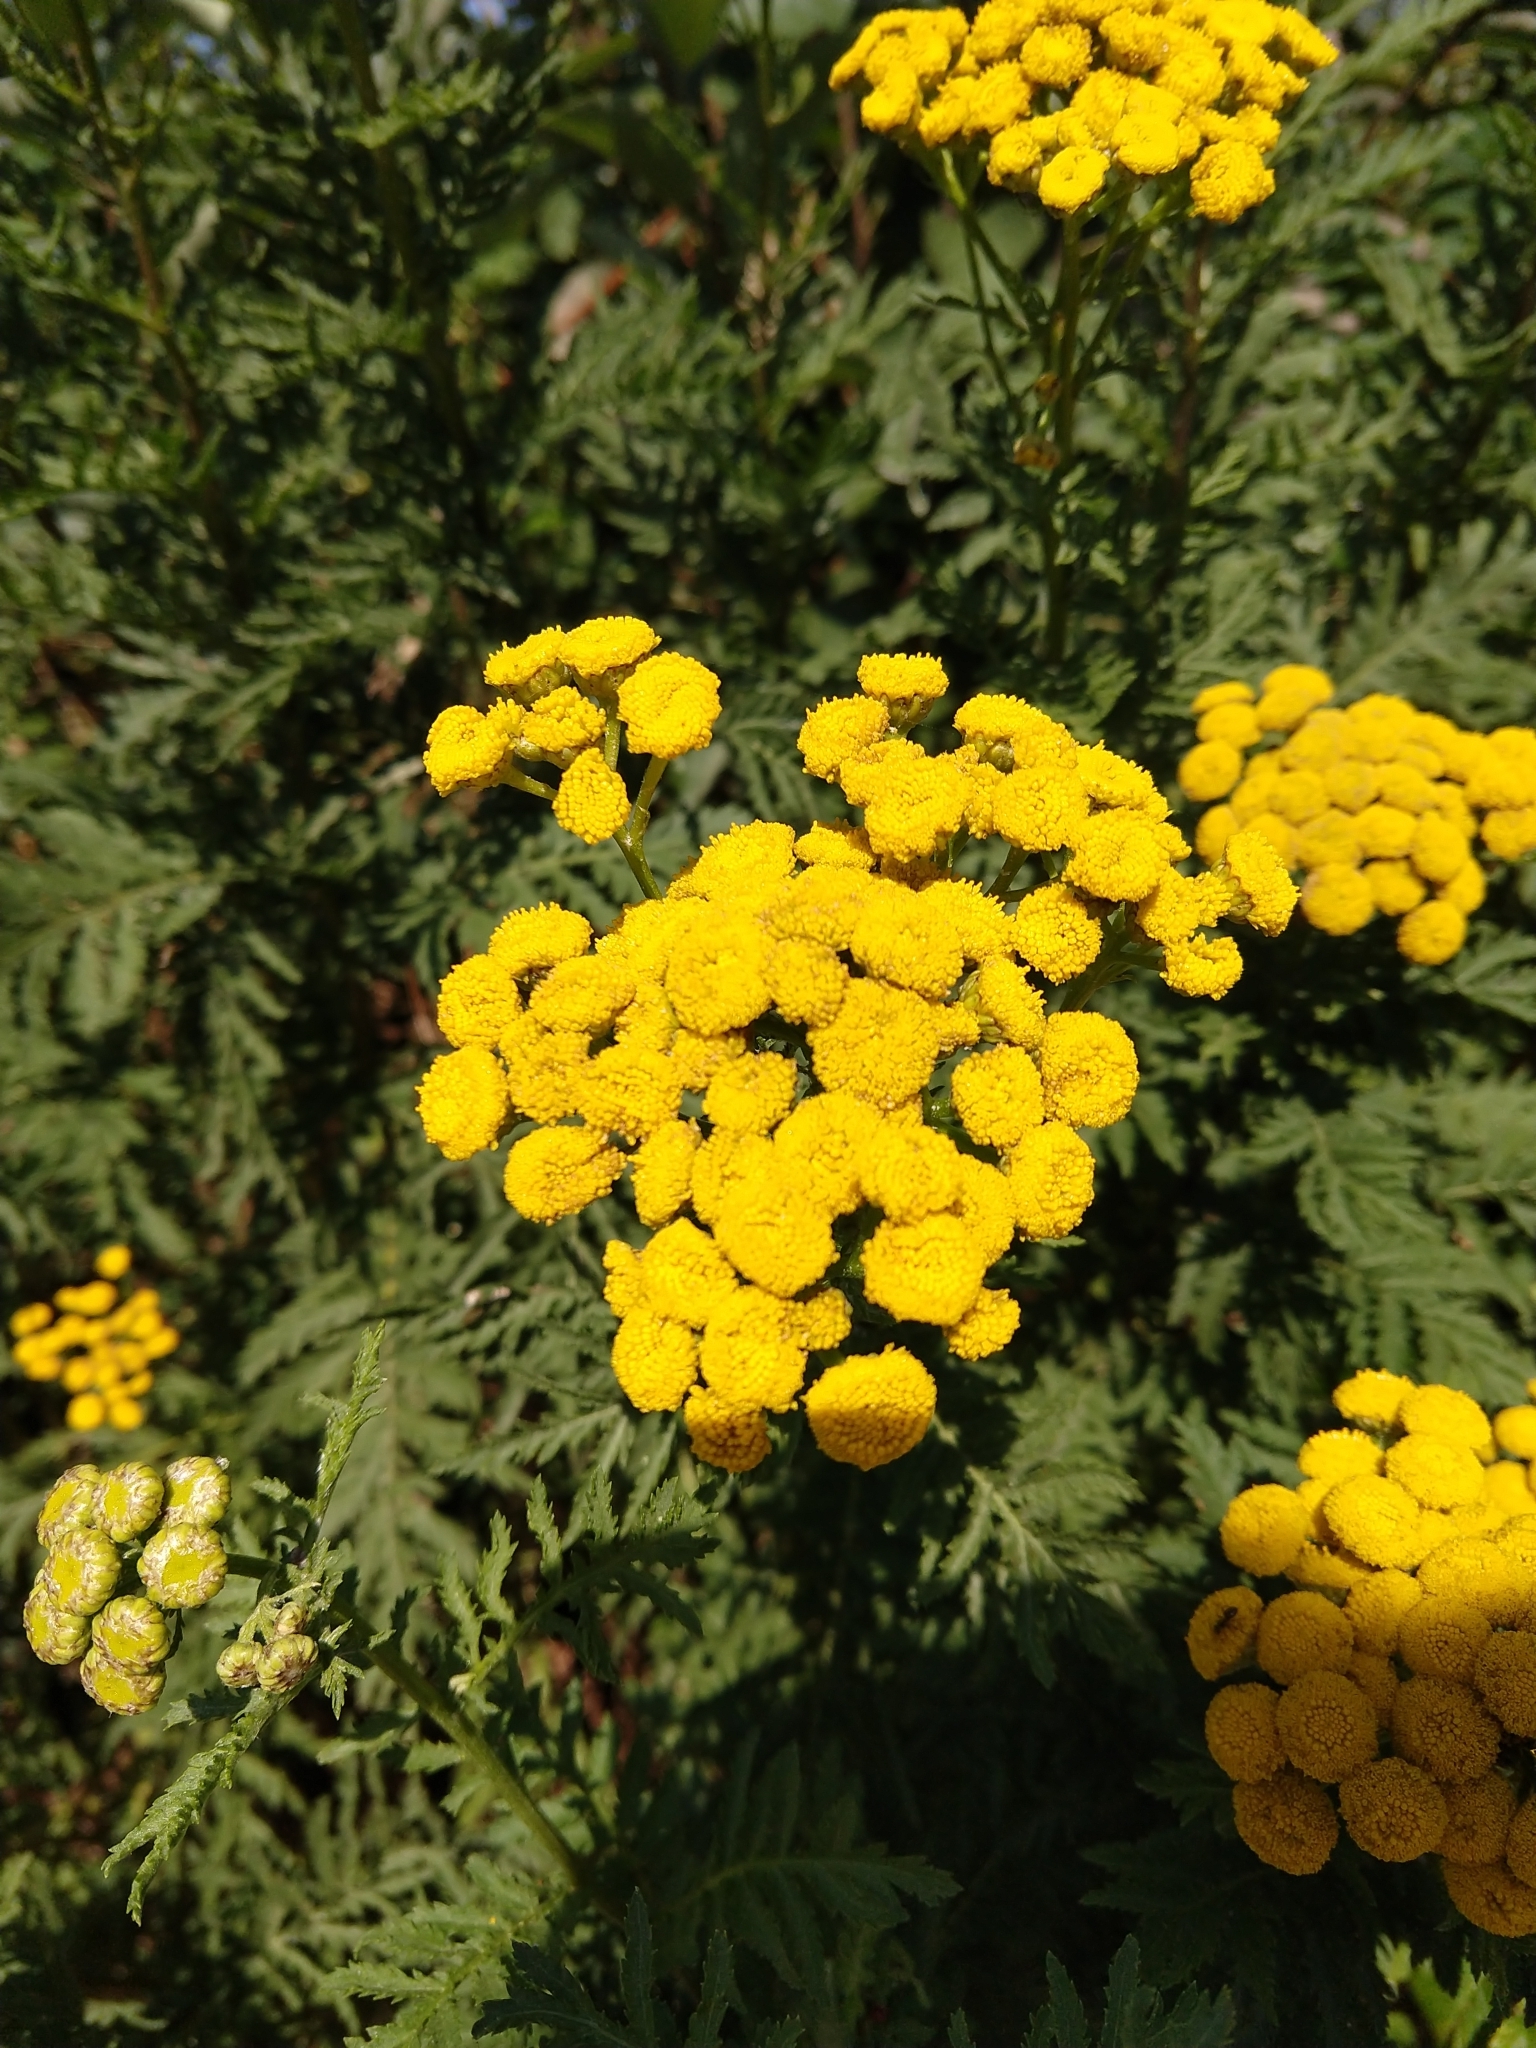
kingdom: Plantae
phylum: Tracheophyta
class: Magnoliopsida
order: Asterales
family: Asteraceae
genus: Tanacetum
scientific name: Tanacetum vulgare
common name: Common tansy
